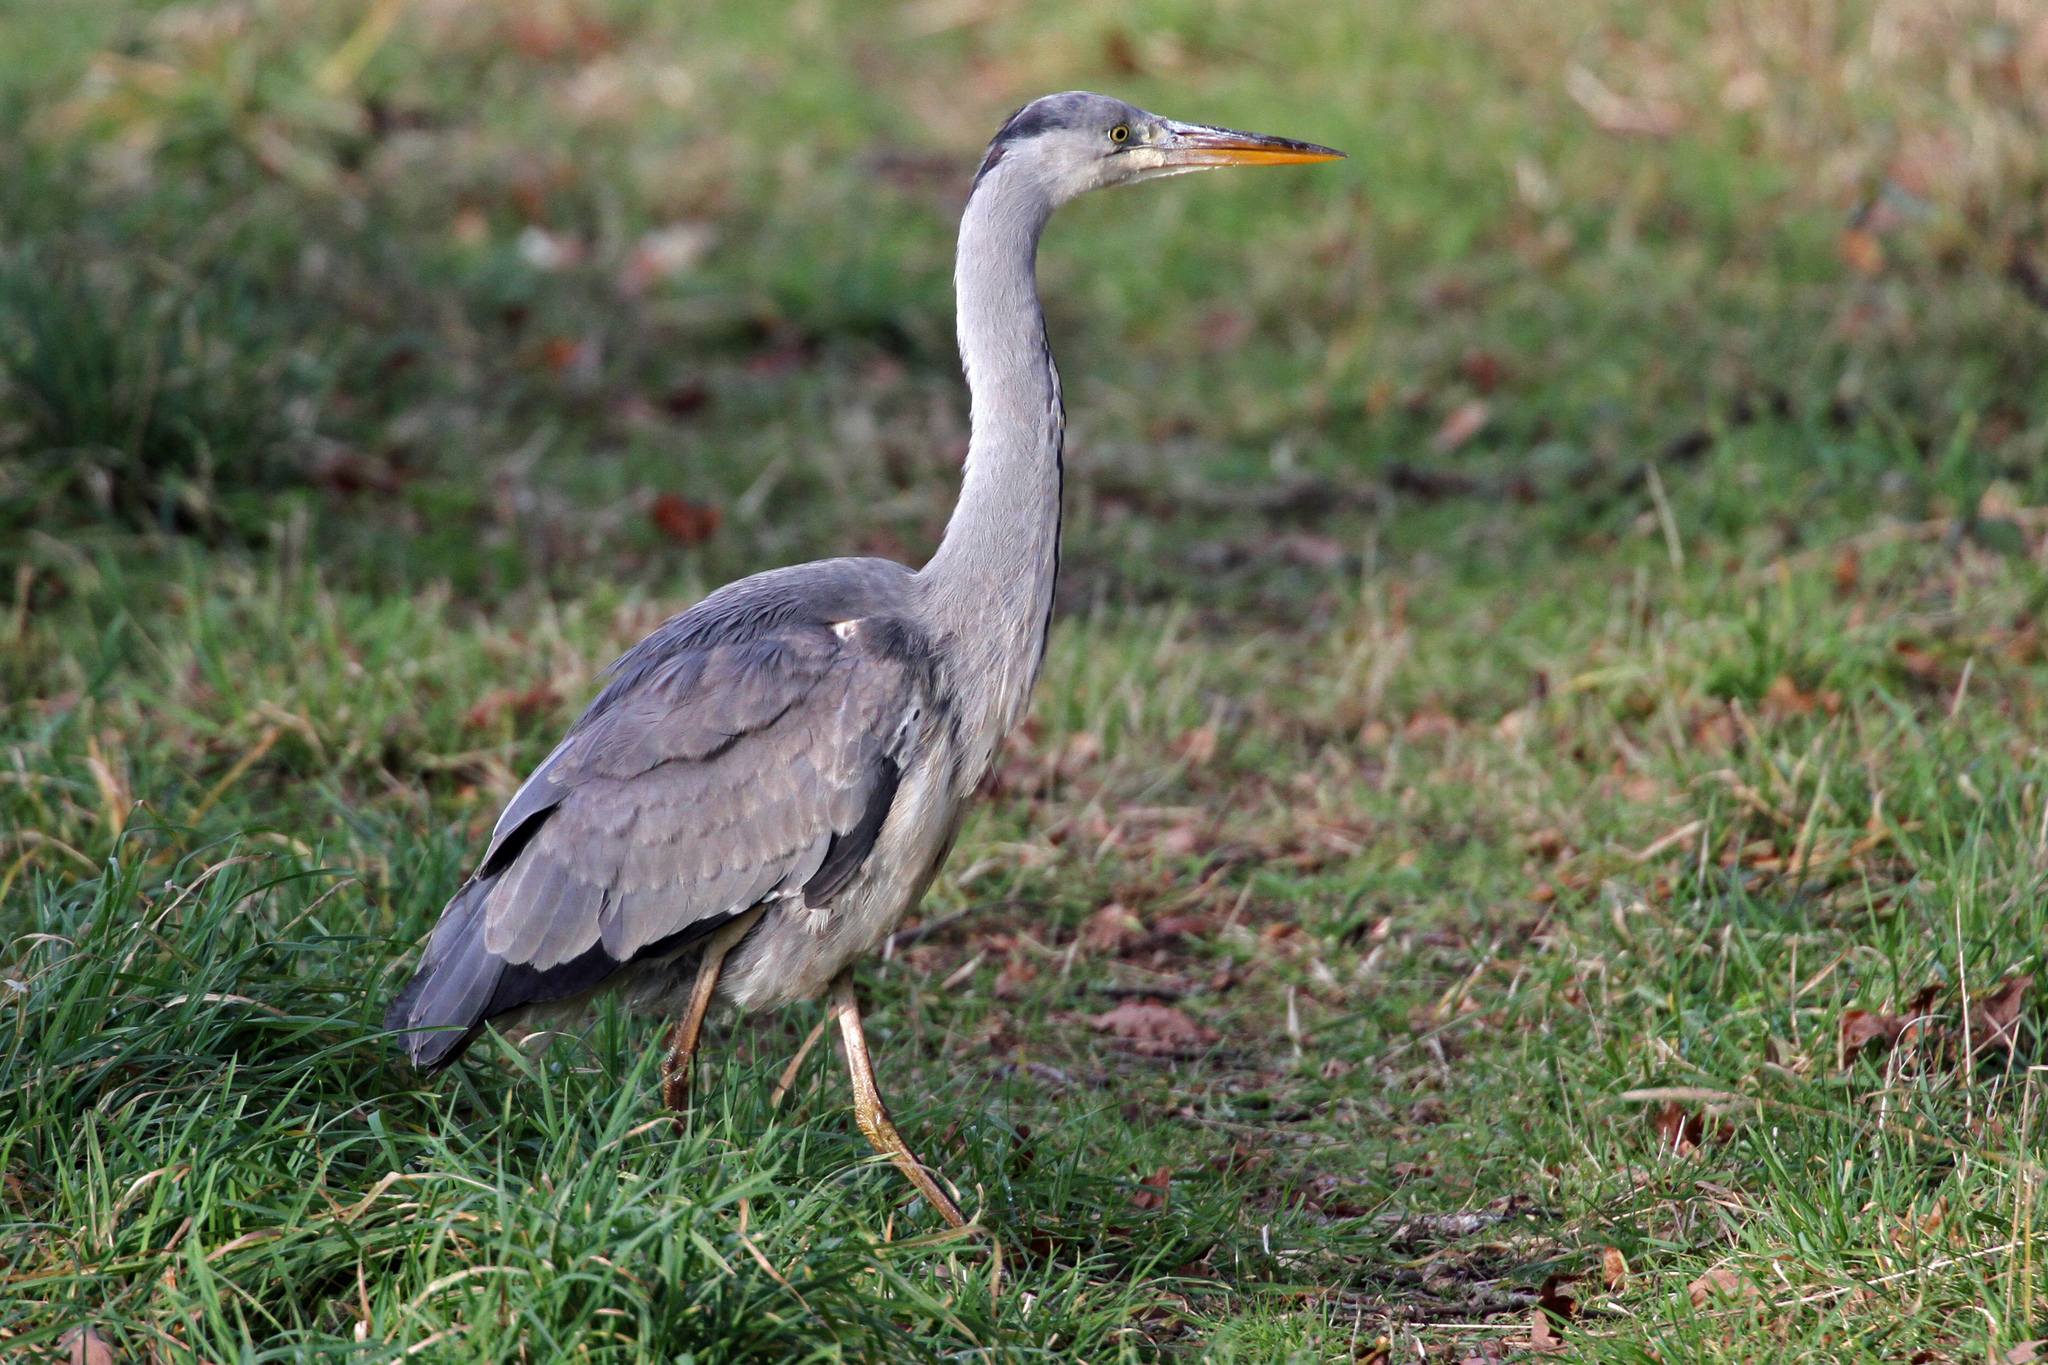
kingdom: Animalia
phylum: Chordata
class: Aves
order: Pelecaniformes
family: Ardeidae
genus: Ardea
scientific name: Ardea cinerea
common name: Grey heron
